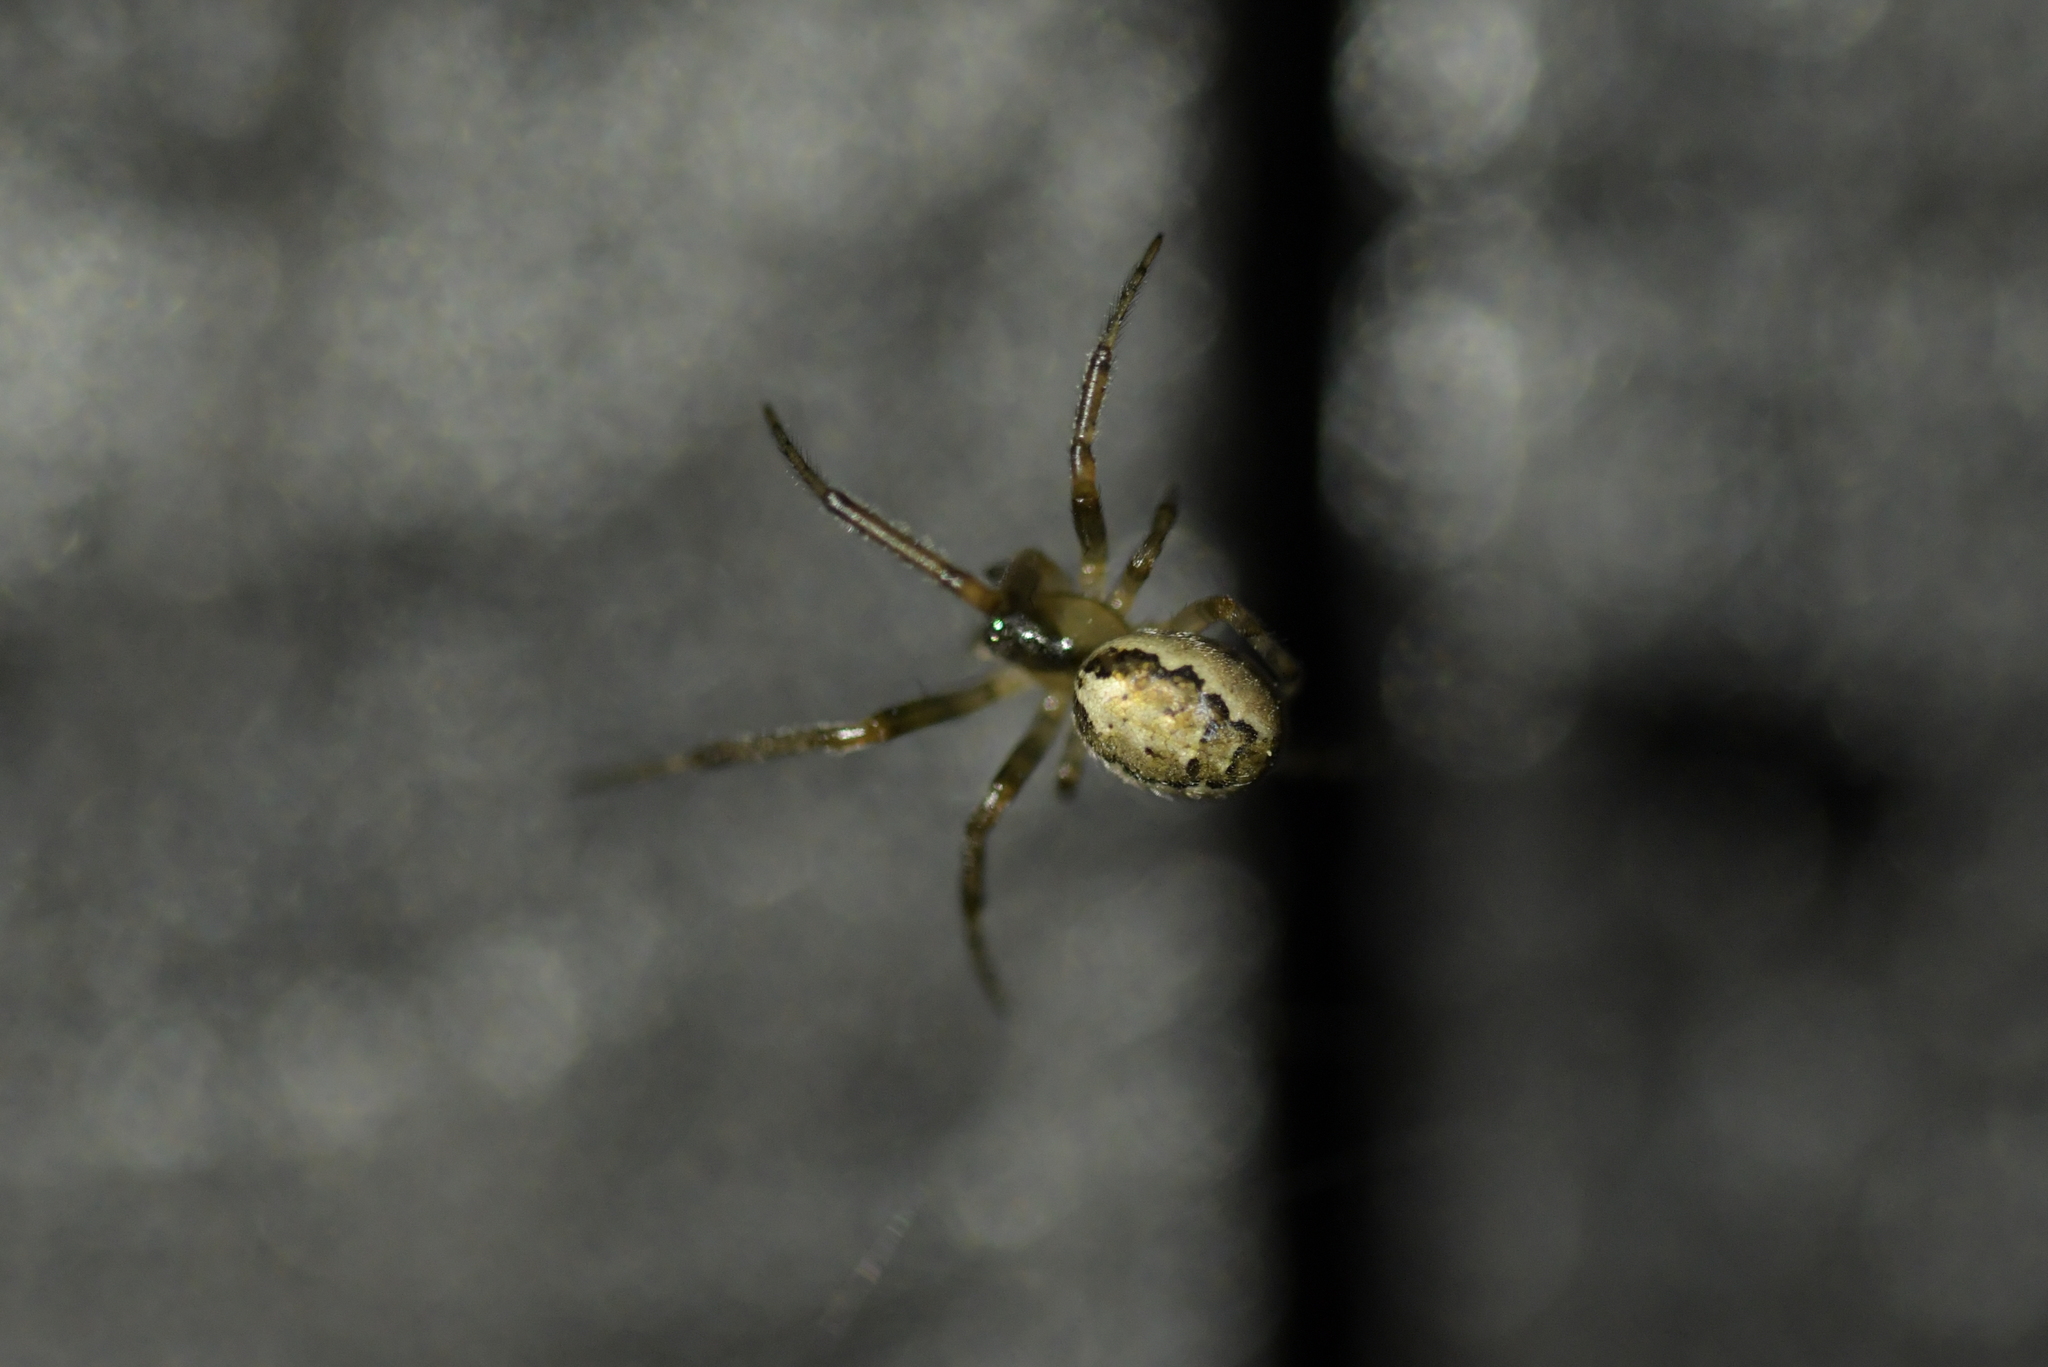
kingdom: Animalia
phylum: Arthropoda
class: Arachnida
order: Araneae
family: Araneidae
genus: Zygiella
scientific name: Zygiella x-notata
